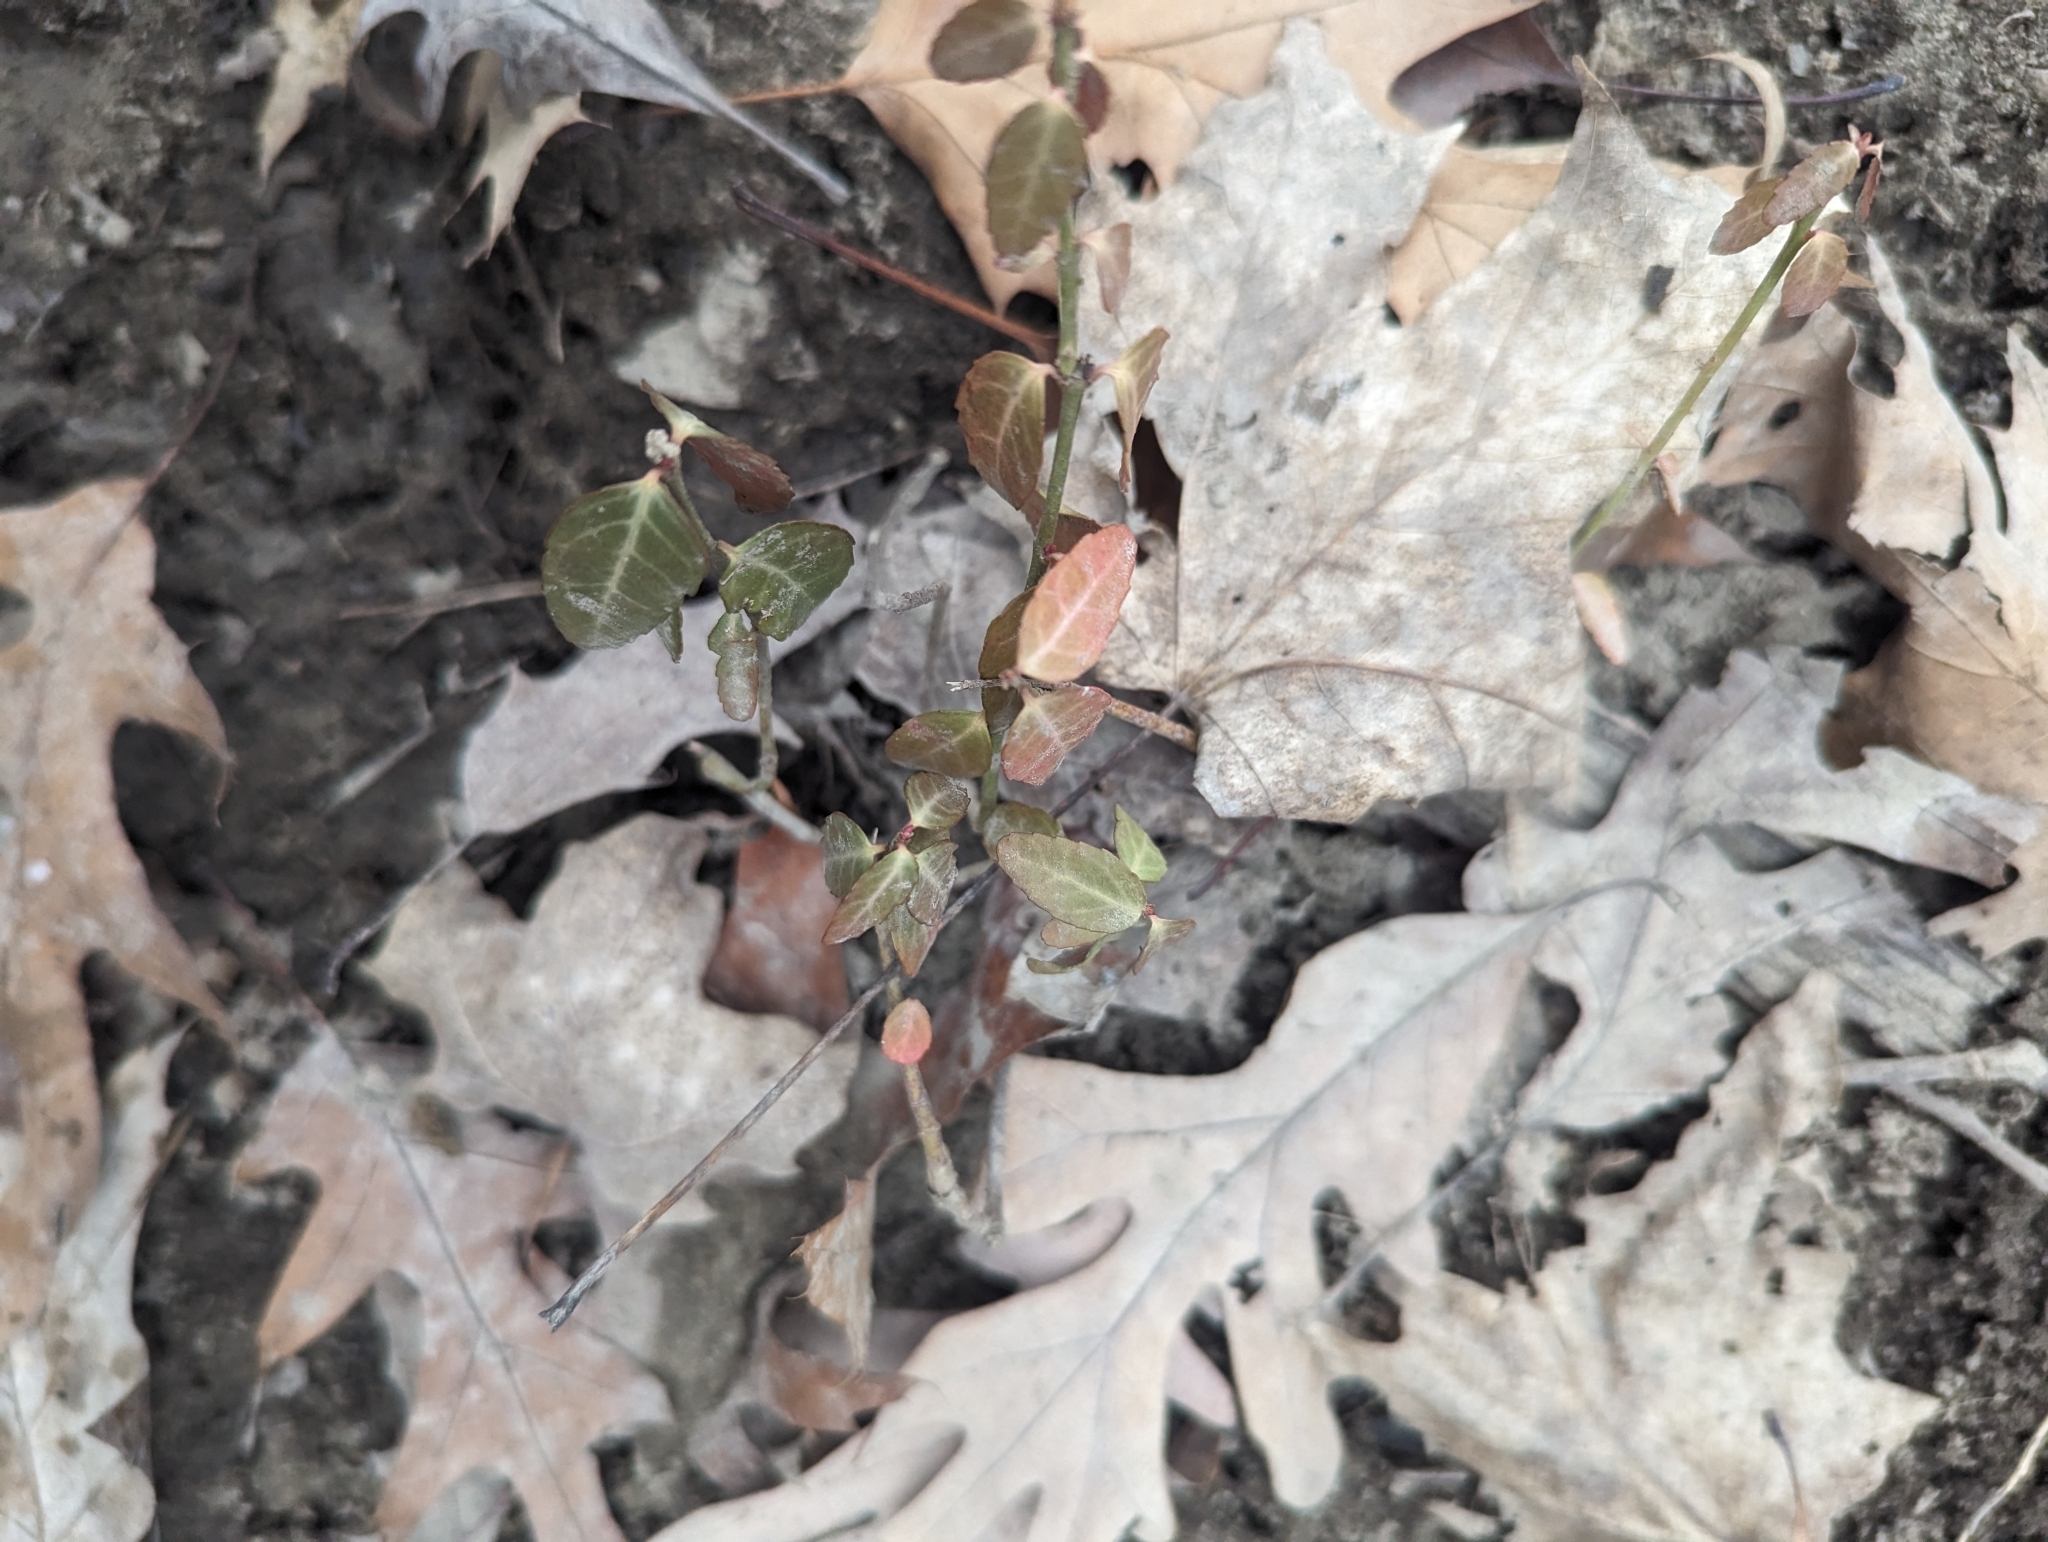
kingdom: Plantae
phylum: Tracheophyta
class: Magnoliopsida
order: Celastrales
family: Celastraceae
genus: Euonymus
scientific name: Euonymus fortunei
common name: Climbing euonymus
